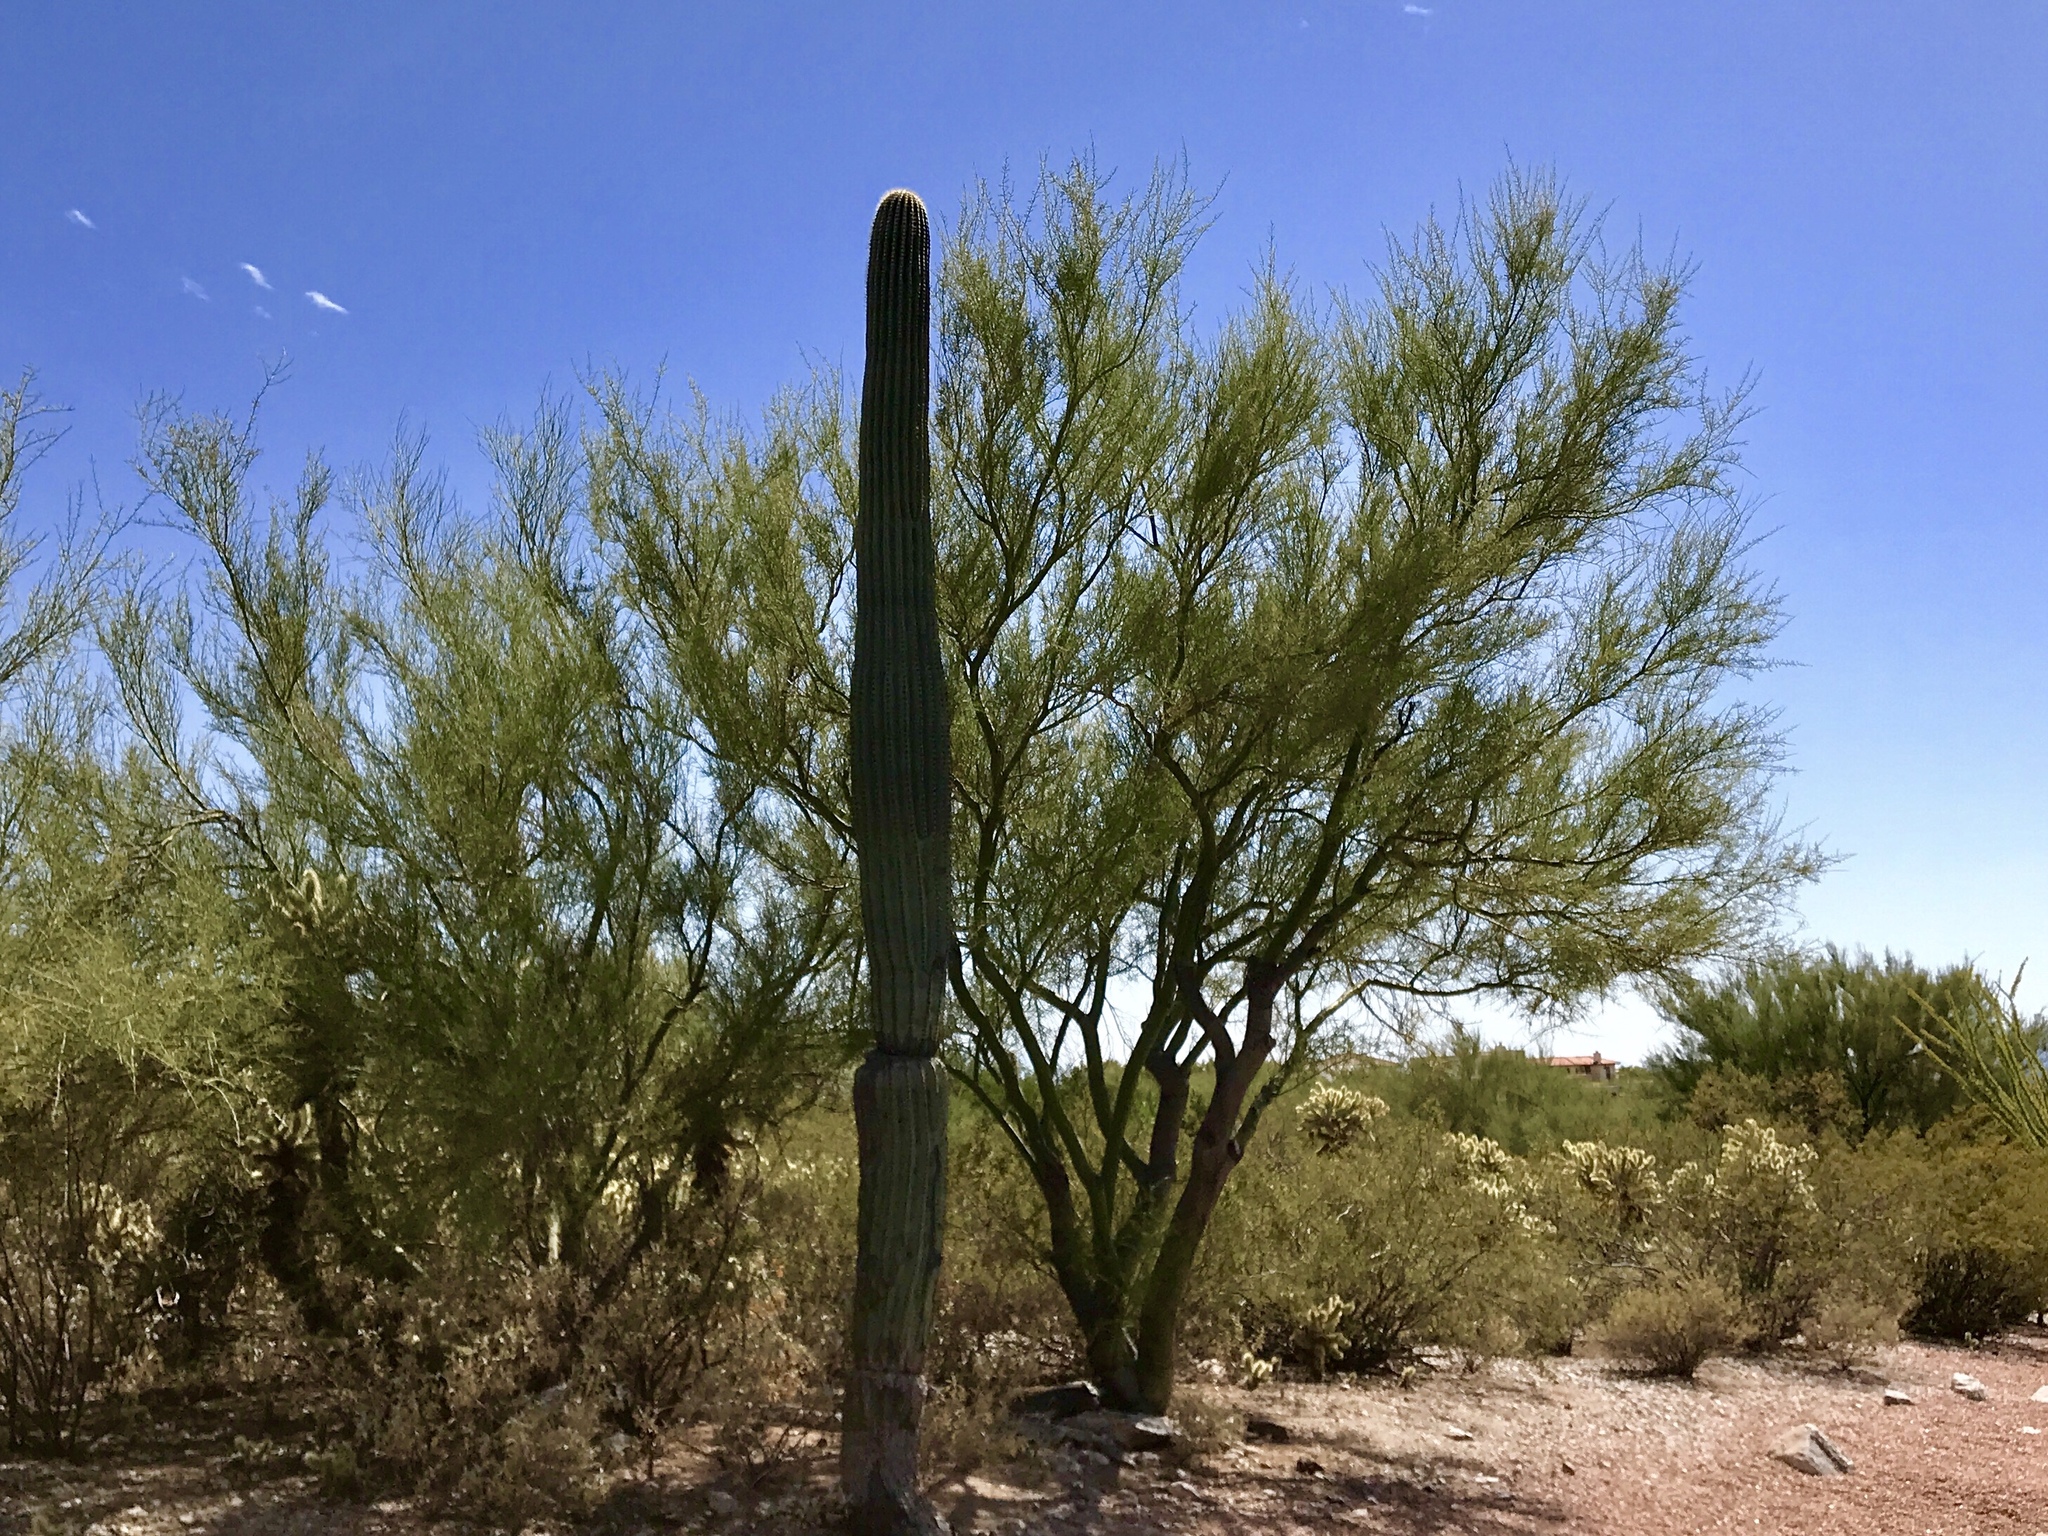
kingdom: Plantae
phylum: Tracheophyta
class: Magnoliopsida
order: Fabales
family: Fabaceae
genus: Parkinsonia
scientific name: Parkinsonia microphylla
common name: Yellow paloverde
